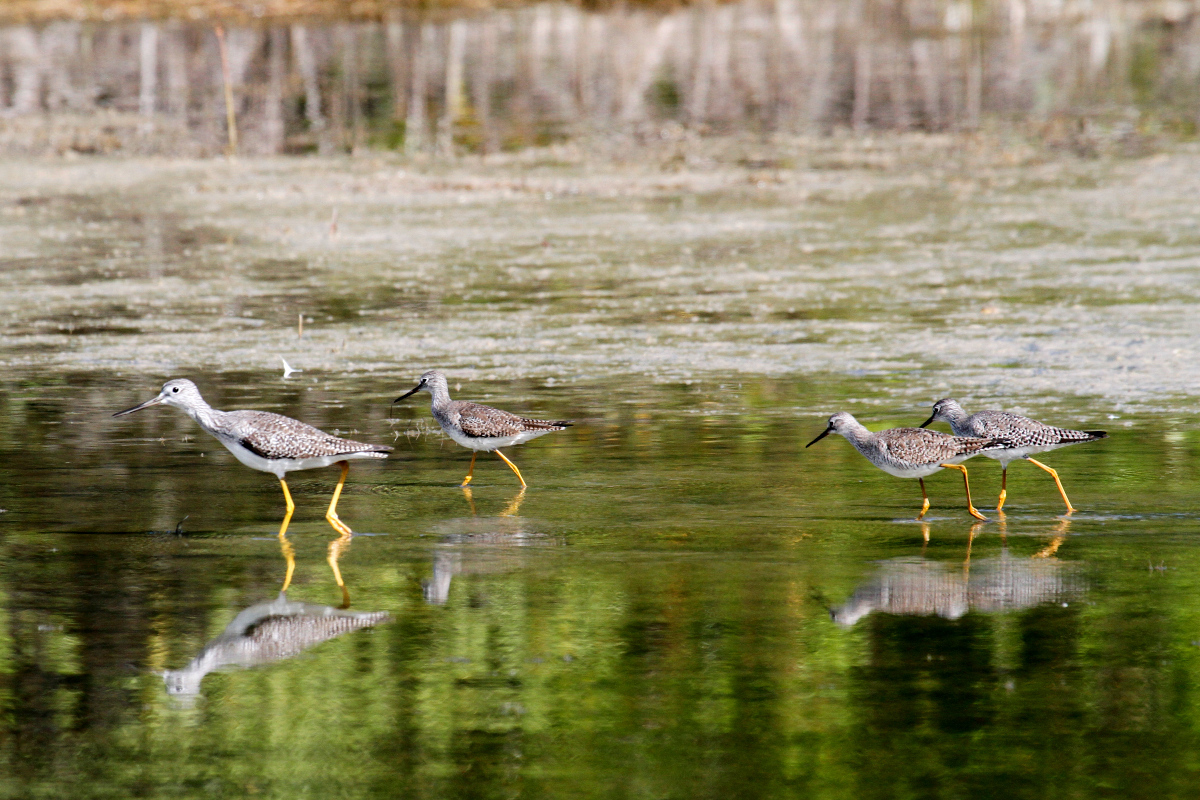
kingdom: Animalia
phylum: Chordata
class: Aves
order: Charadriiformes
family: Scolopacidae
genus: Tringa
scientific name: Tringa melanoleuca
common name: Greater yellowlegs
